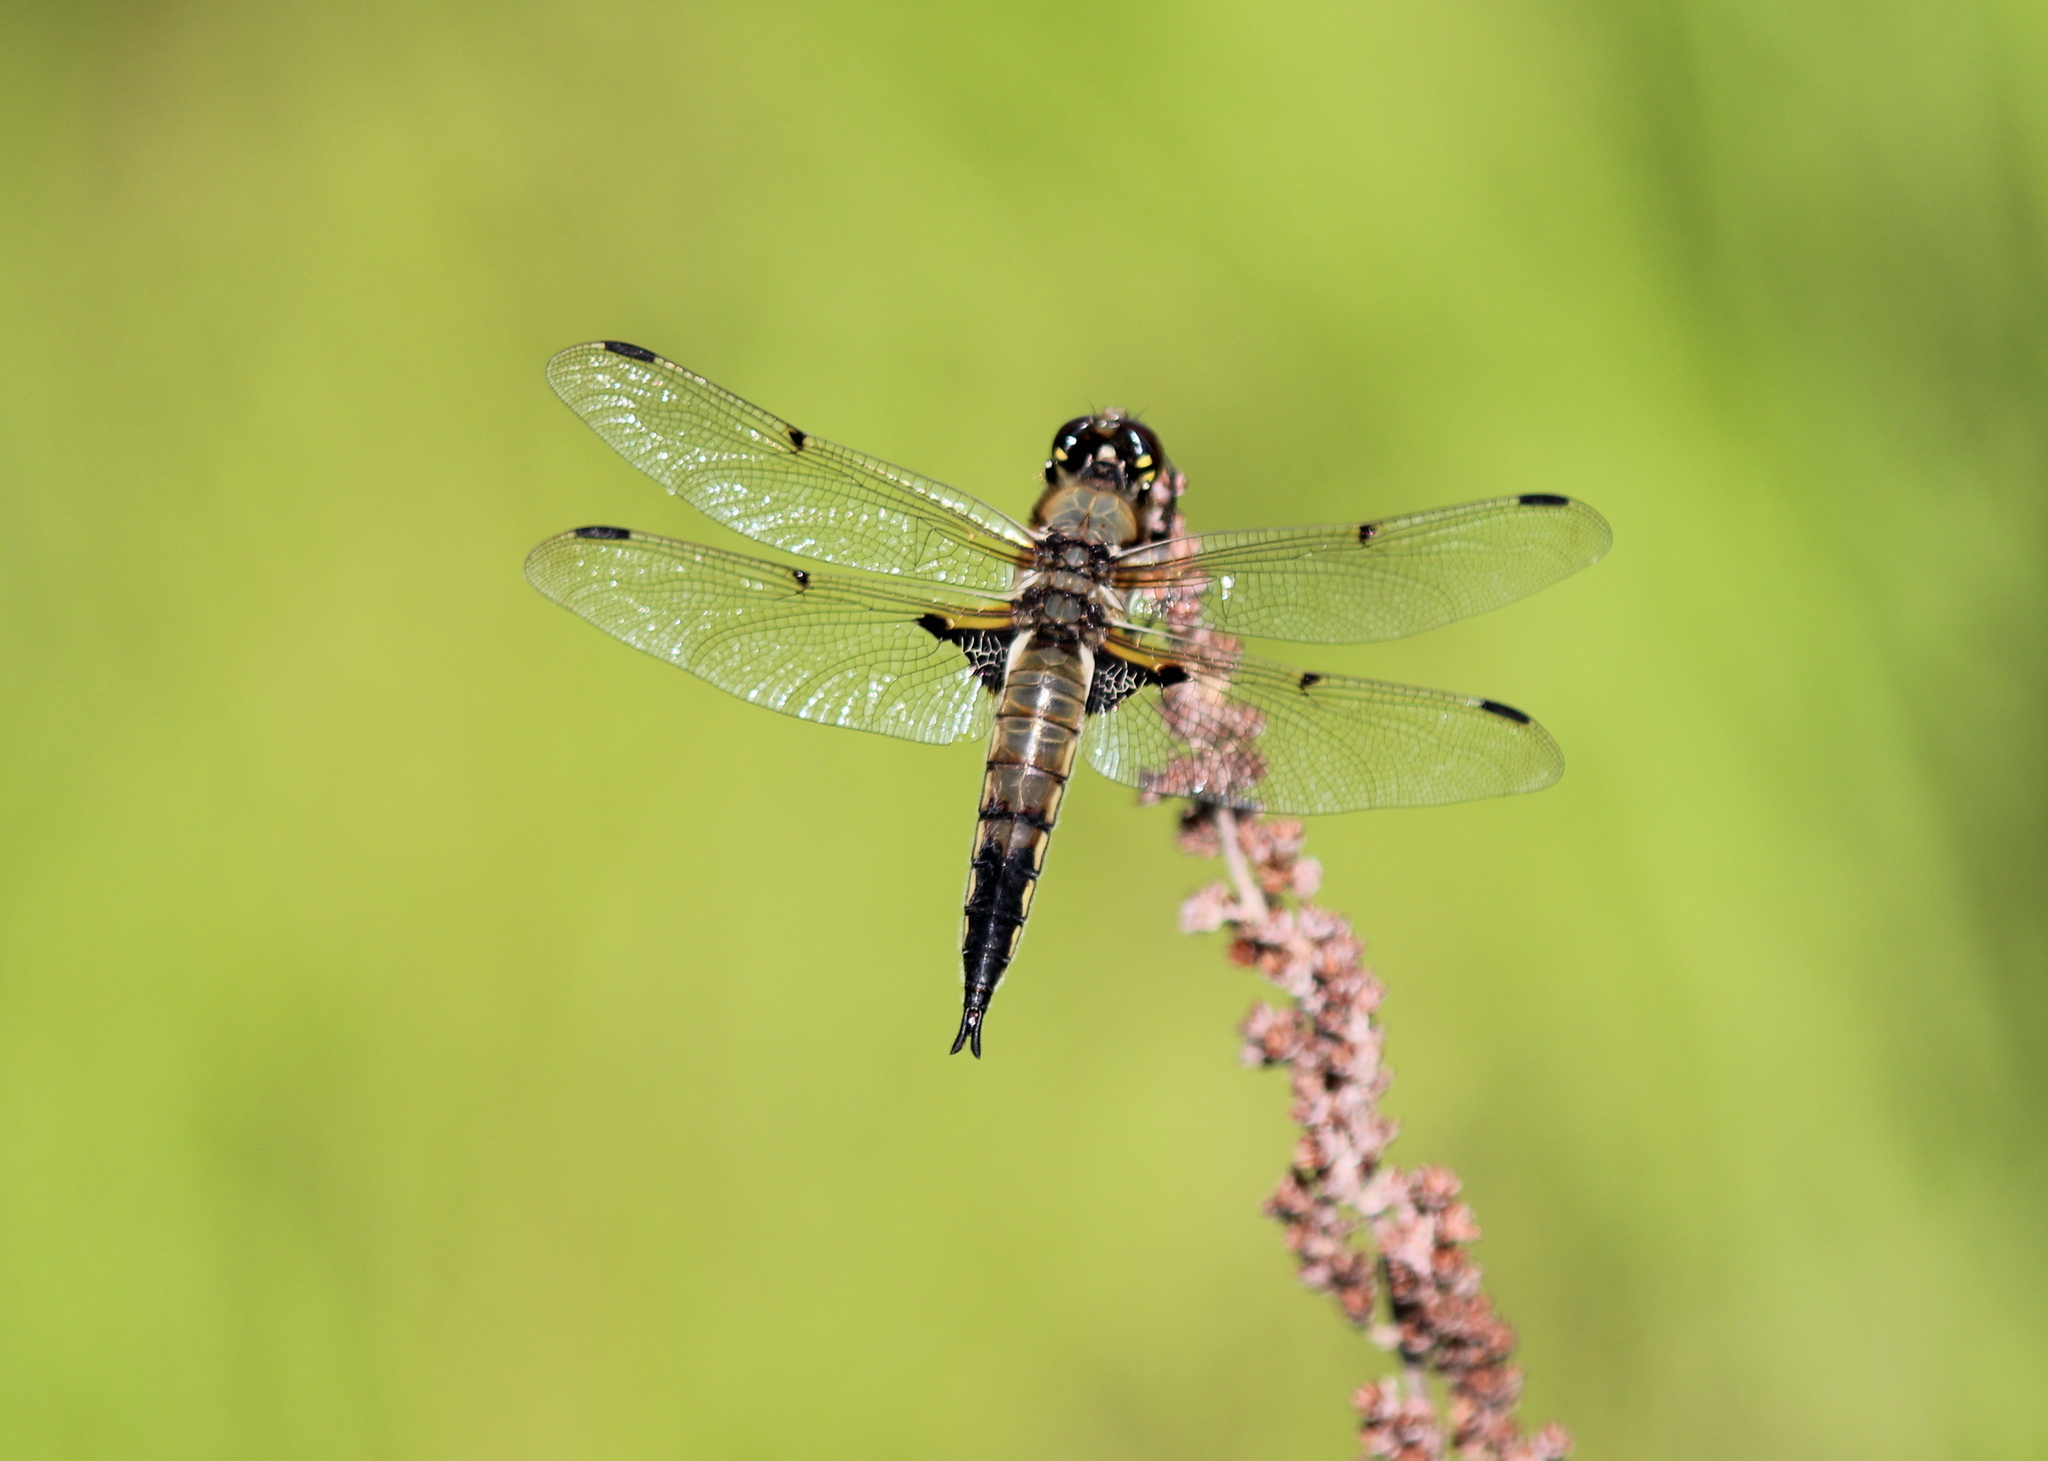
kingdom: Animalia
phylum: Arthropoda
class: Insecta
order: Odonata
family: Libellulidae
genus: Libellula
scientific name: Libellula quadrimaculata
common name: Four-spotted chaser
